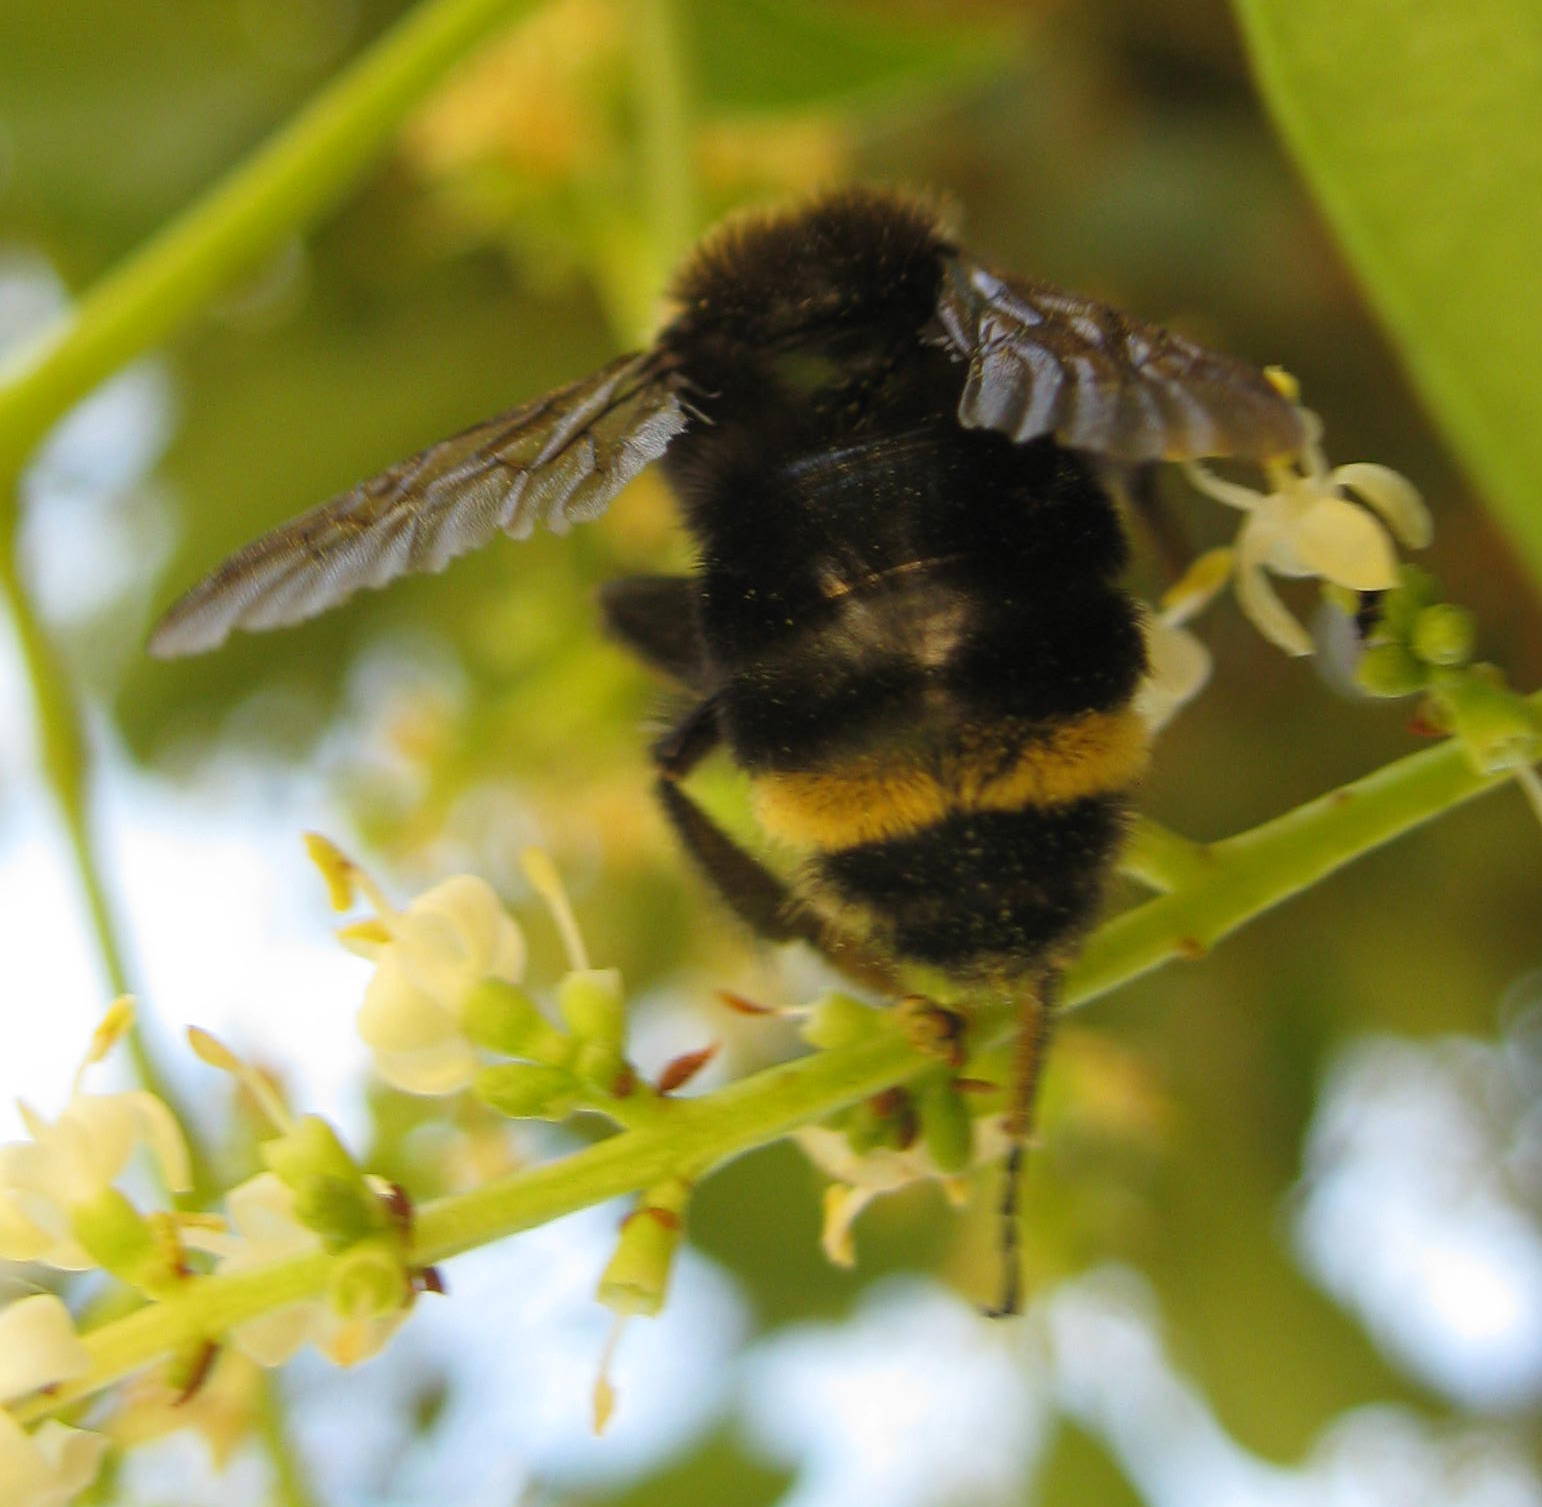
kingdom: Animalia
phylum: Arthropoda
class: Insecta
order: Hymenoptera
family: Apidae
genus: Bombus
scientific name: Bombus vosnesenskii
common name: Vosnesensky bumble bee
